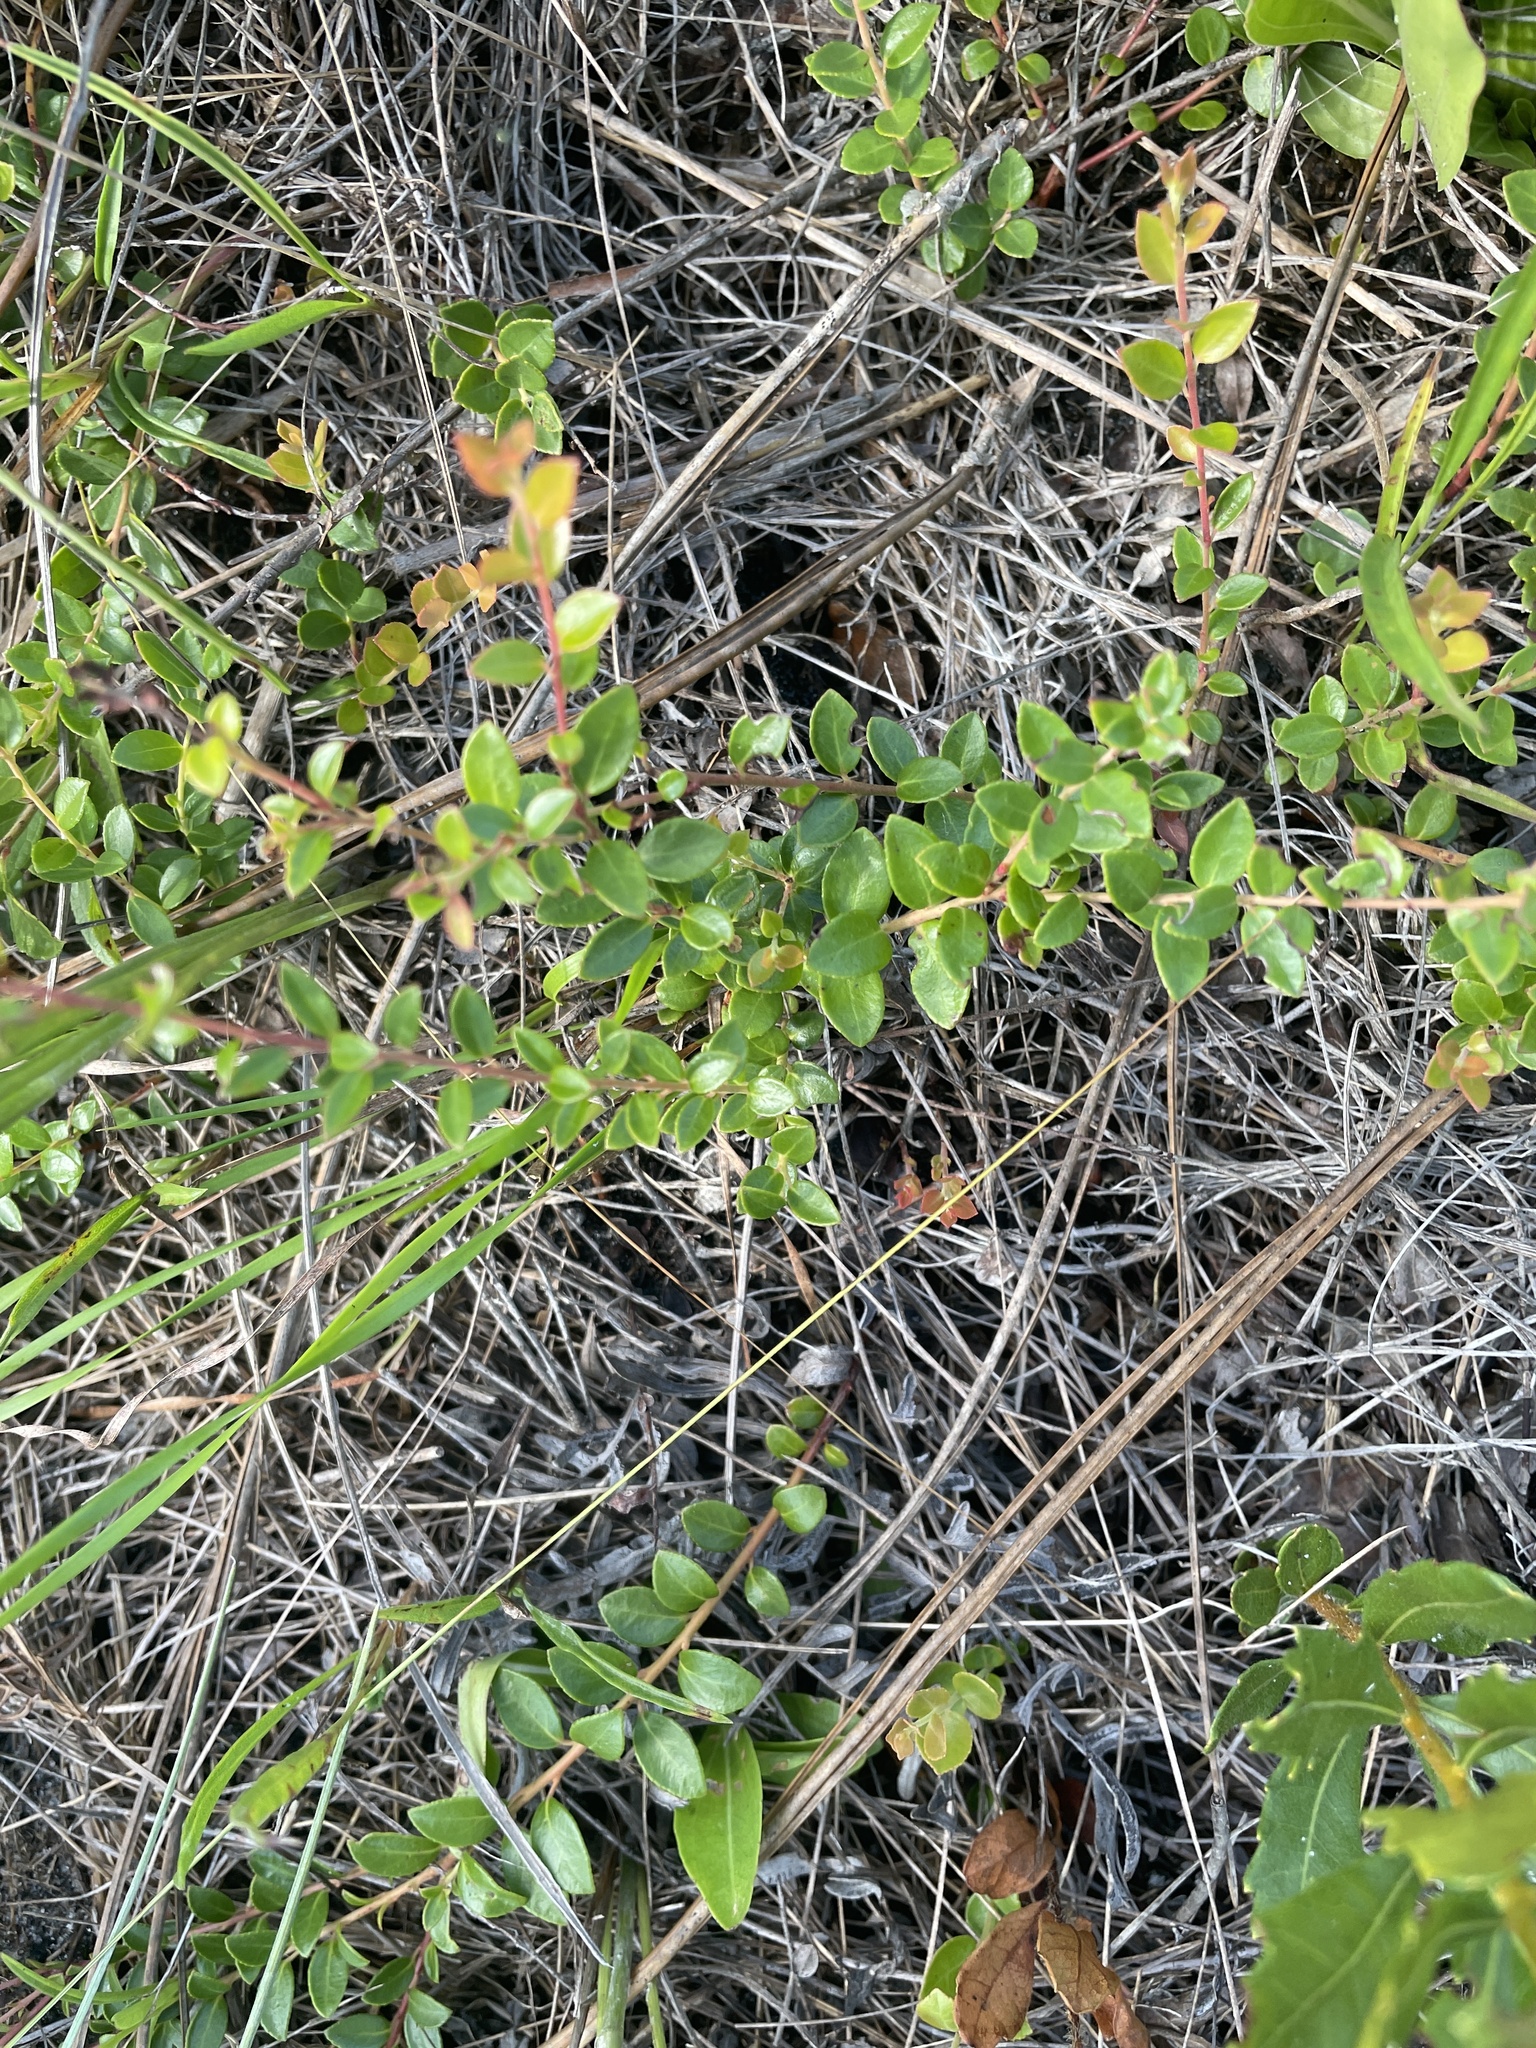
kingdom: Plantae
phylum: Tracheophyta
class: Magnoliopsida
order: Ericales
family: Ericaceae
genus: Vaccinium
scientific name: Vaccinium crassifolium
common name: Creeping blueberry
